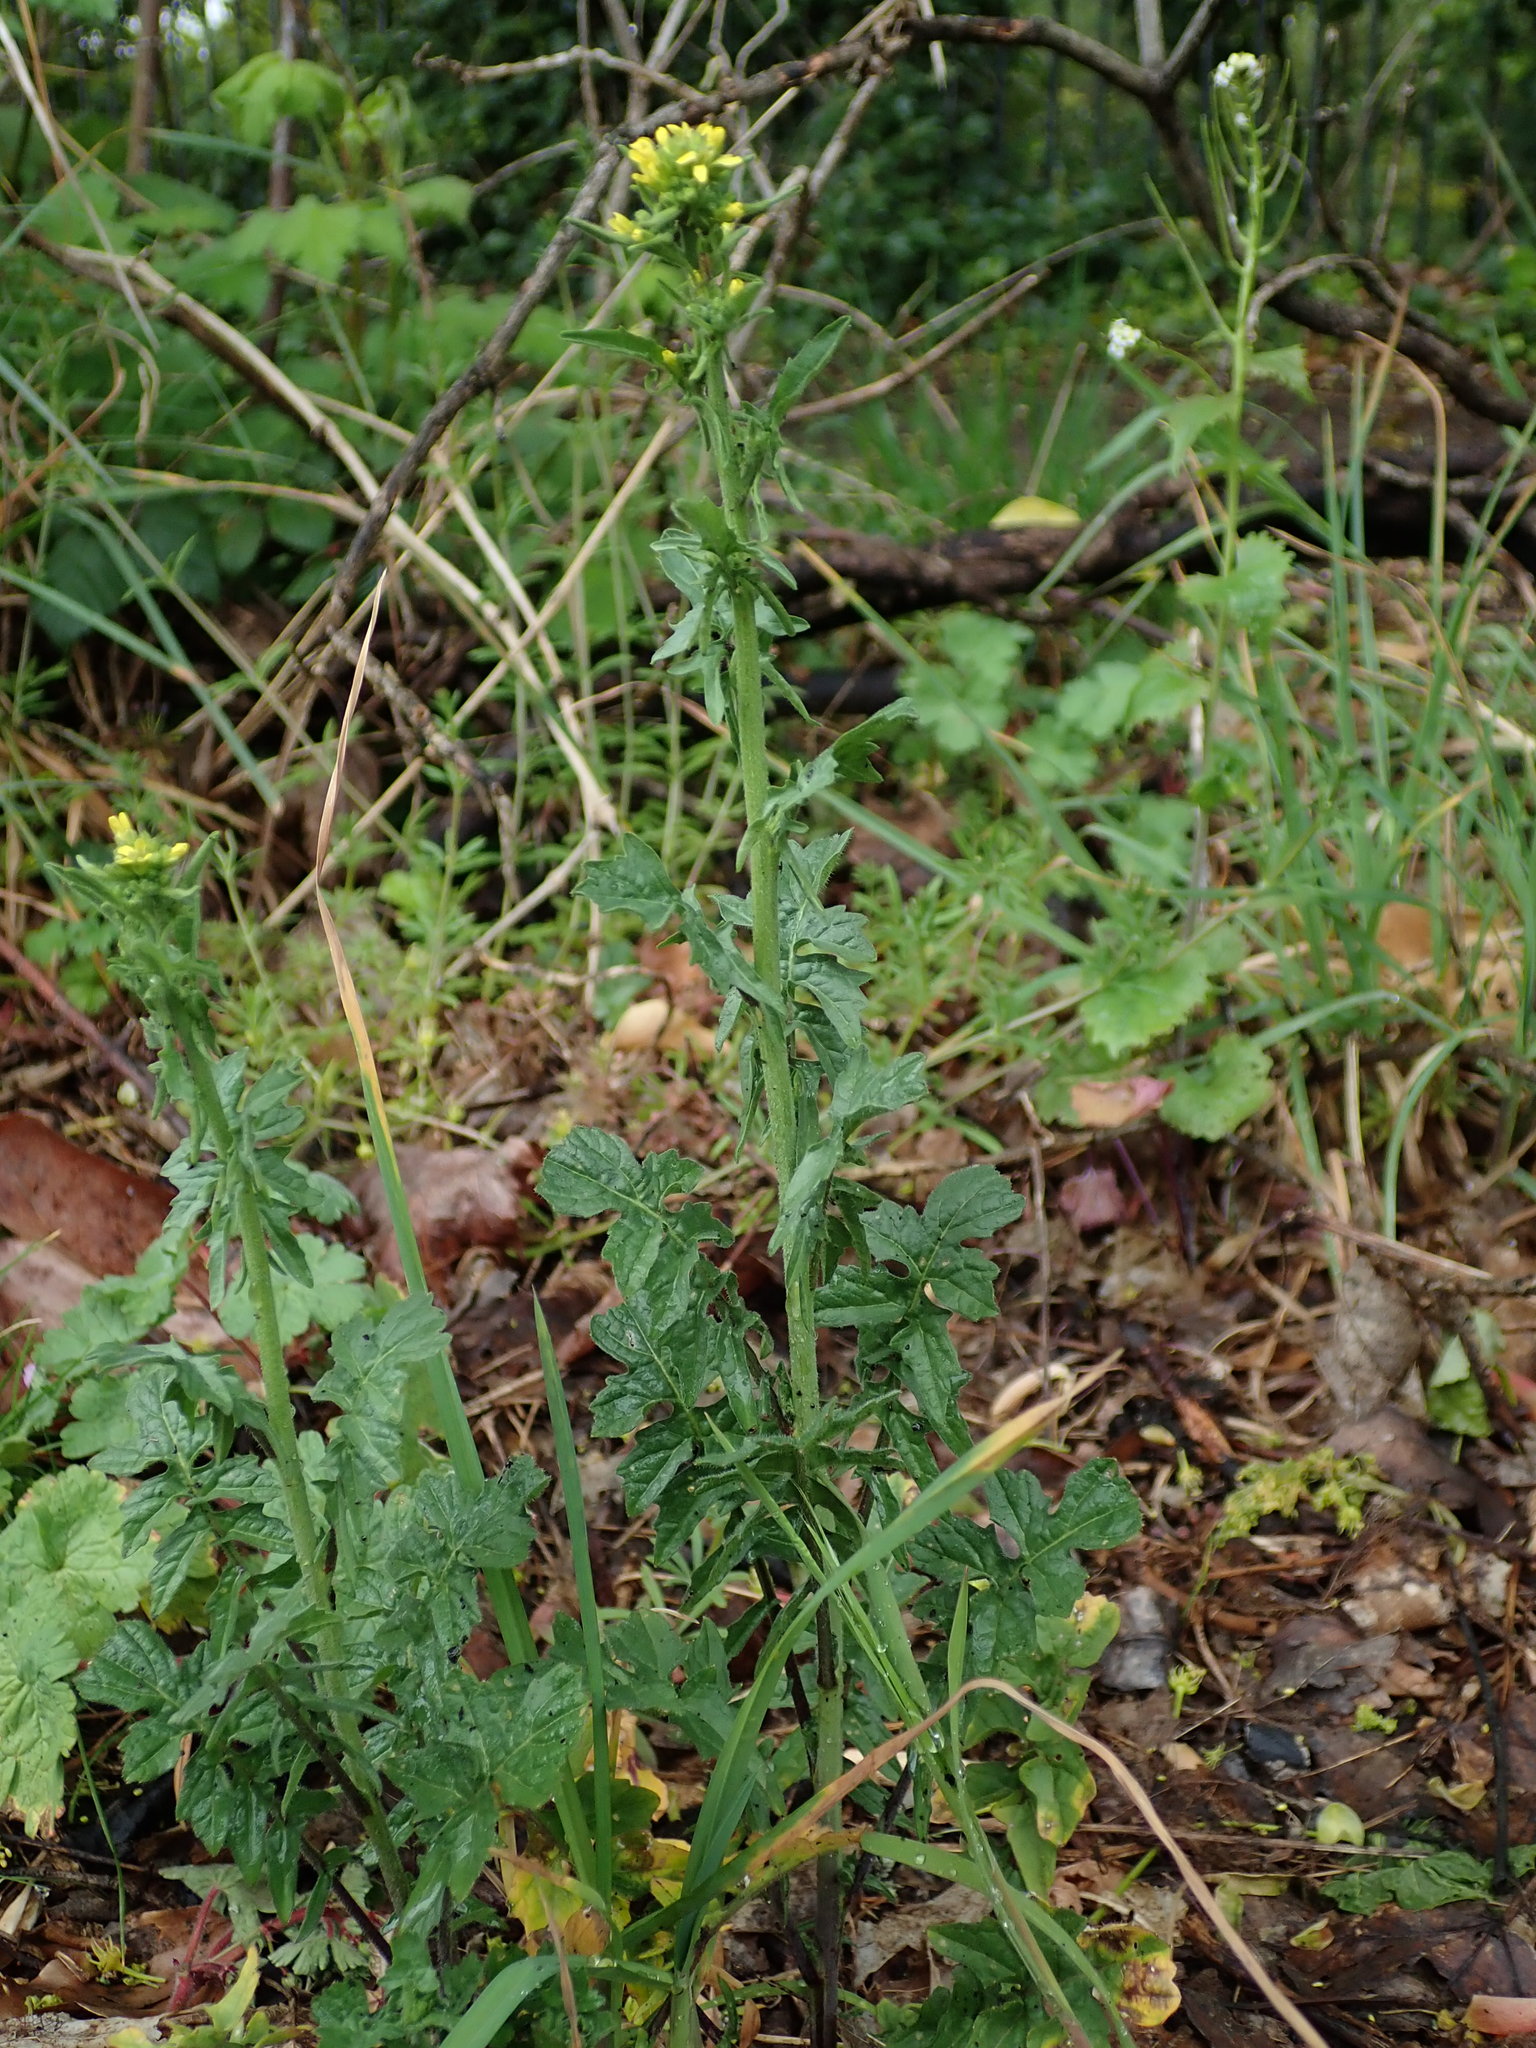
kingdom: Plantae
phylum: Tracheophyta
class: Magnoliopsida
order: Brassicales
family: Brassicaceae
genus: Sisymbrium
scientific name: Sisymbrium officinale
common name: Hedge mustard
